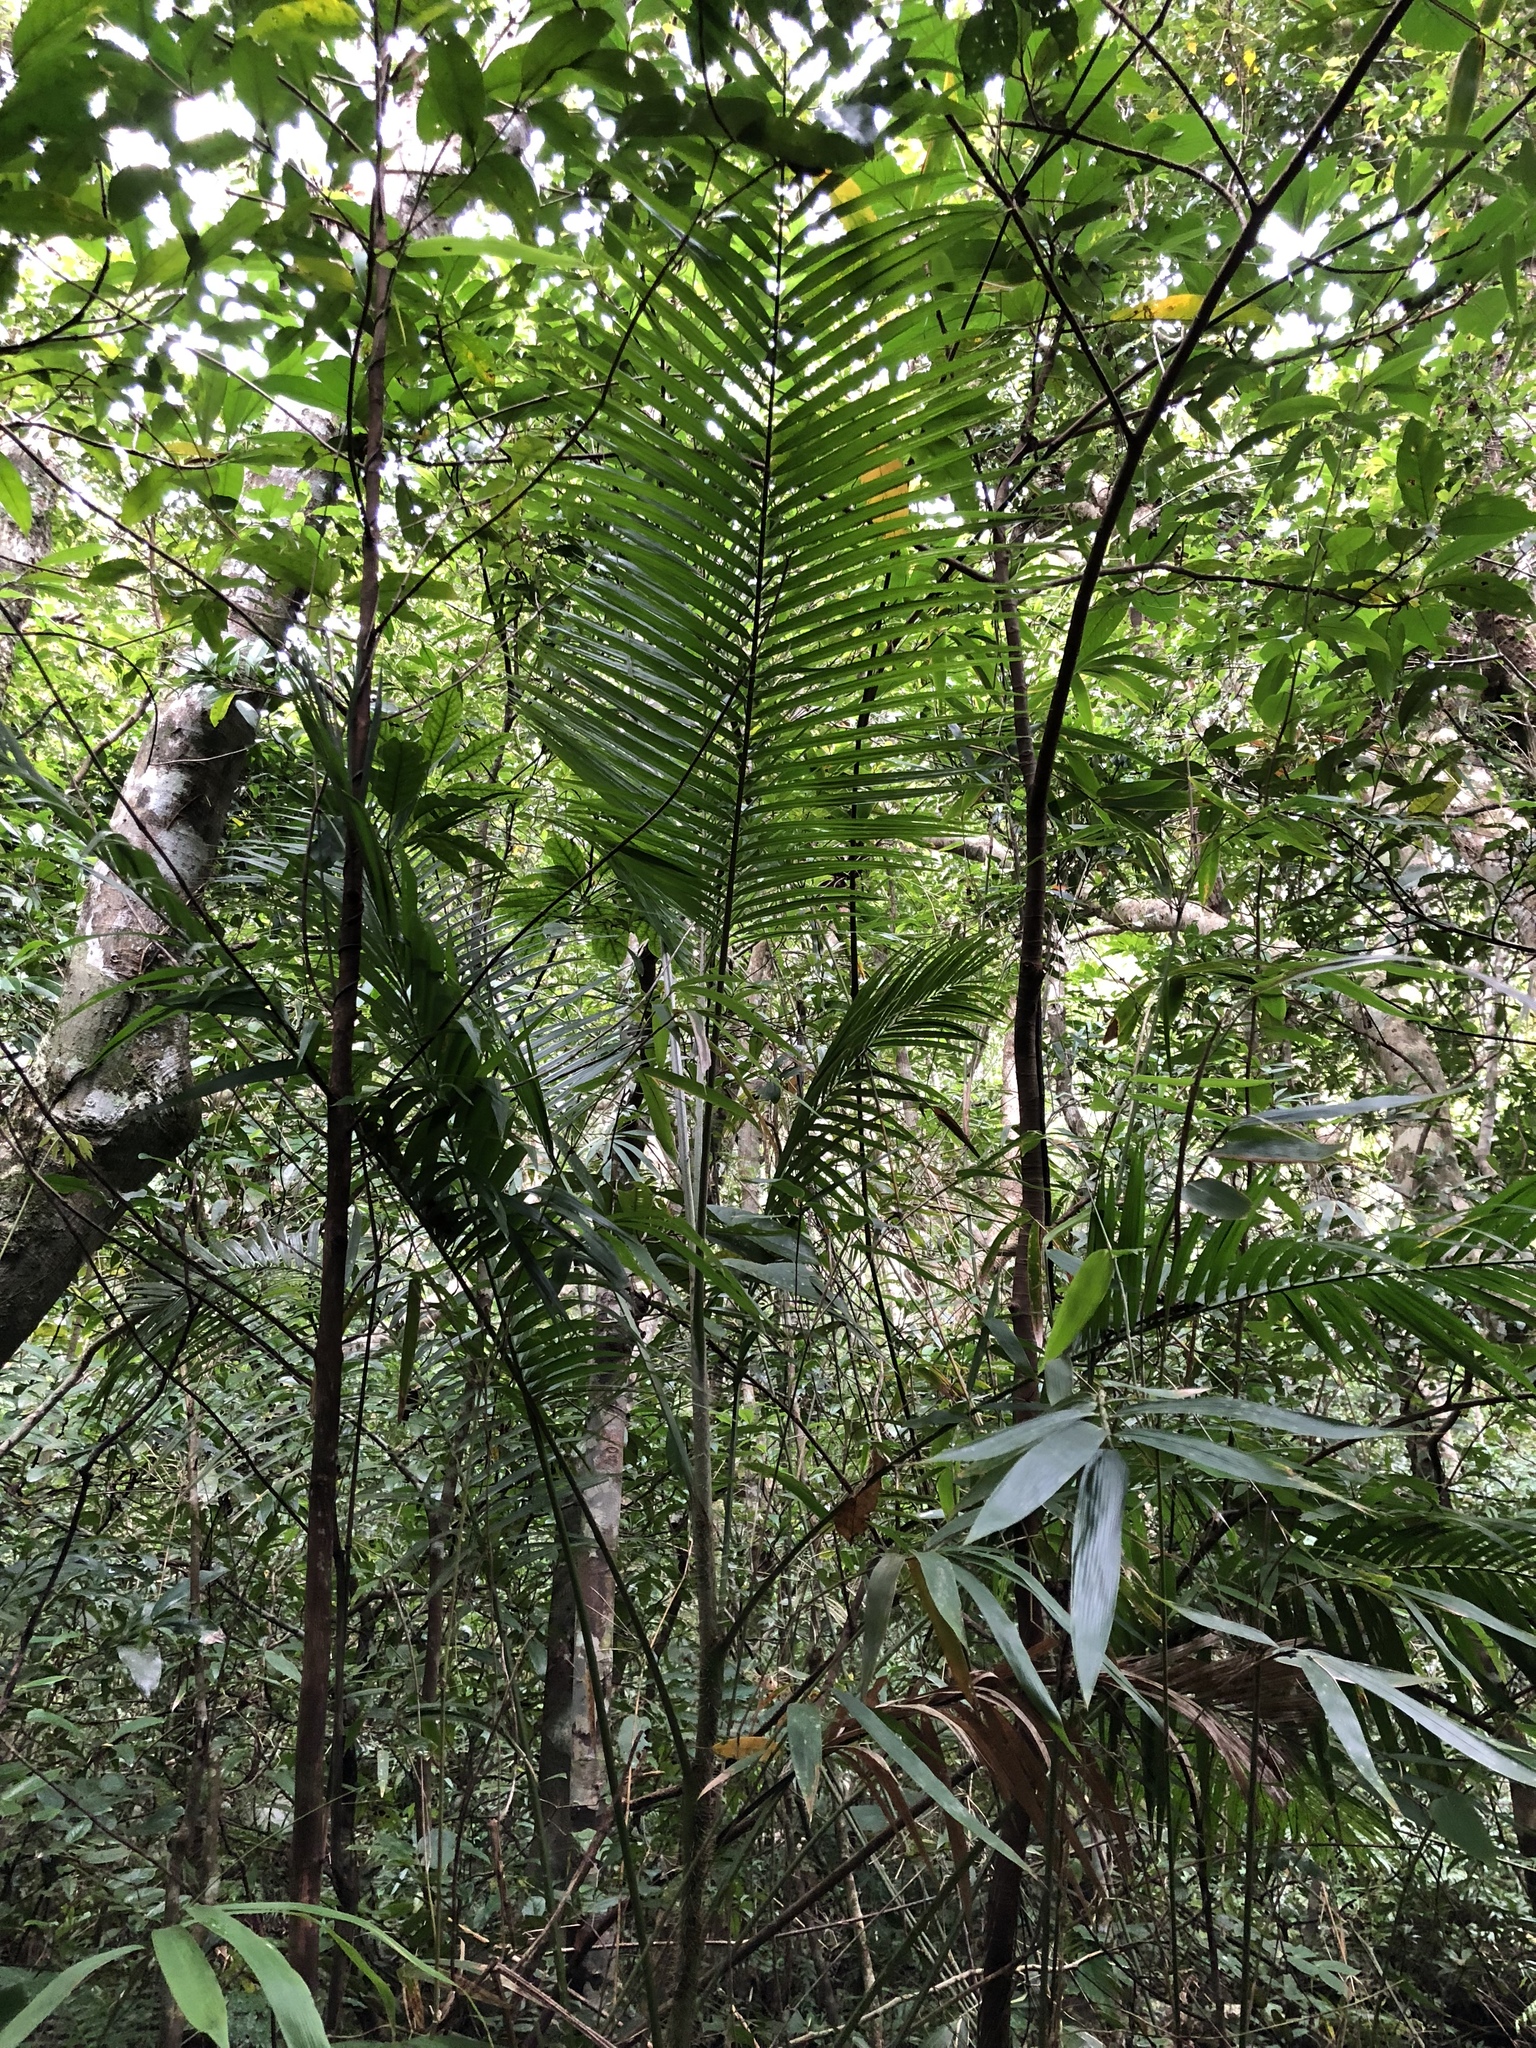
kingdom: Plantae
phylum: Tracheophyta
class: Liliopsida
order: Arecales
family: Arecaceae
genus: Calamus
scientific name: Calamus formosanus
